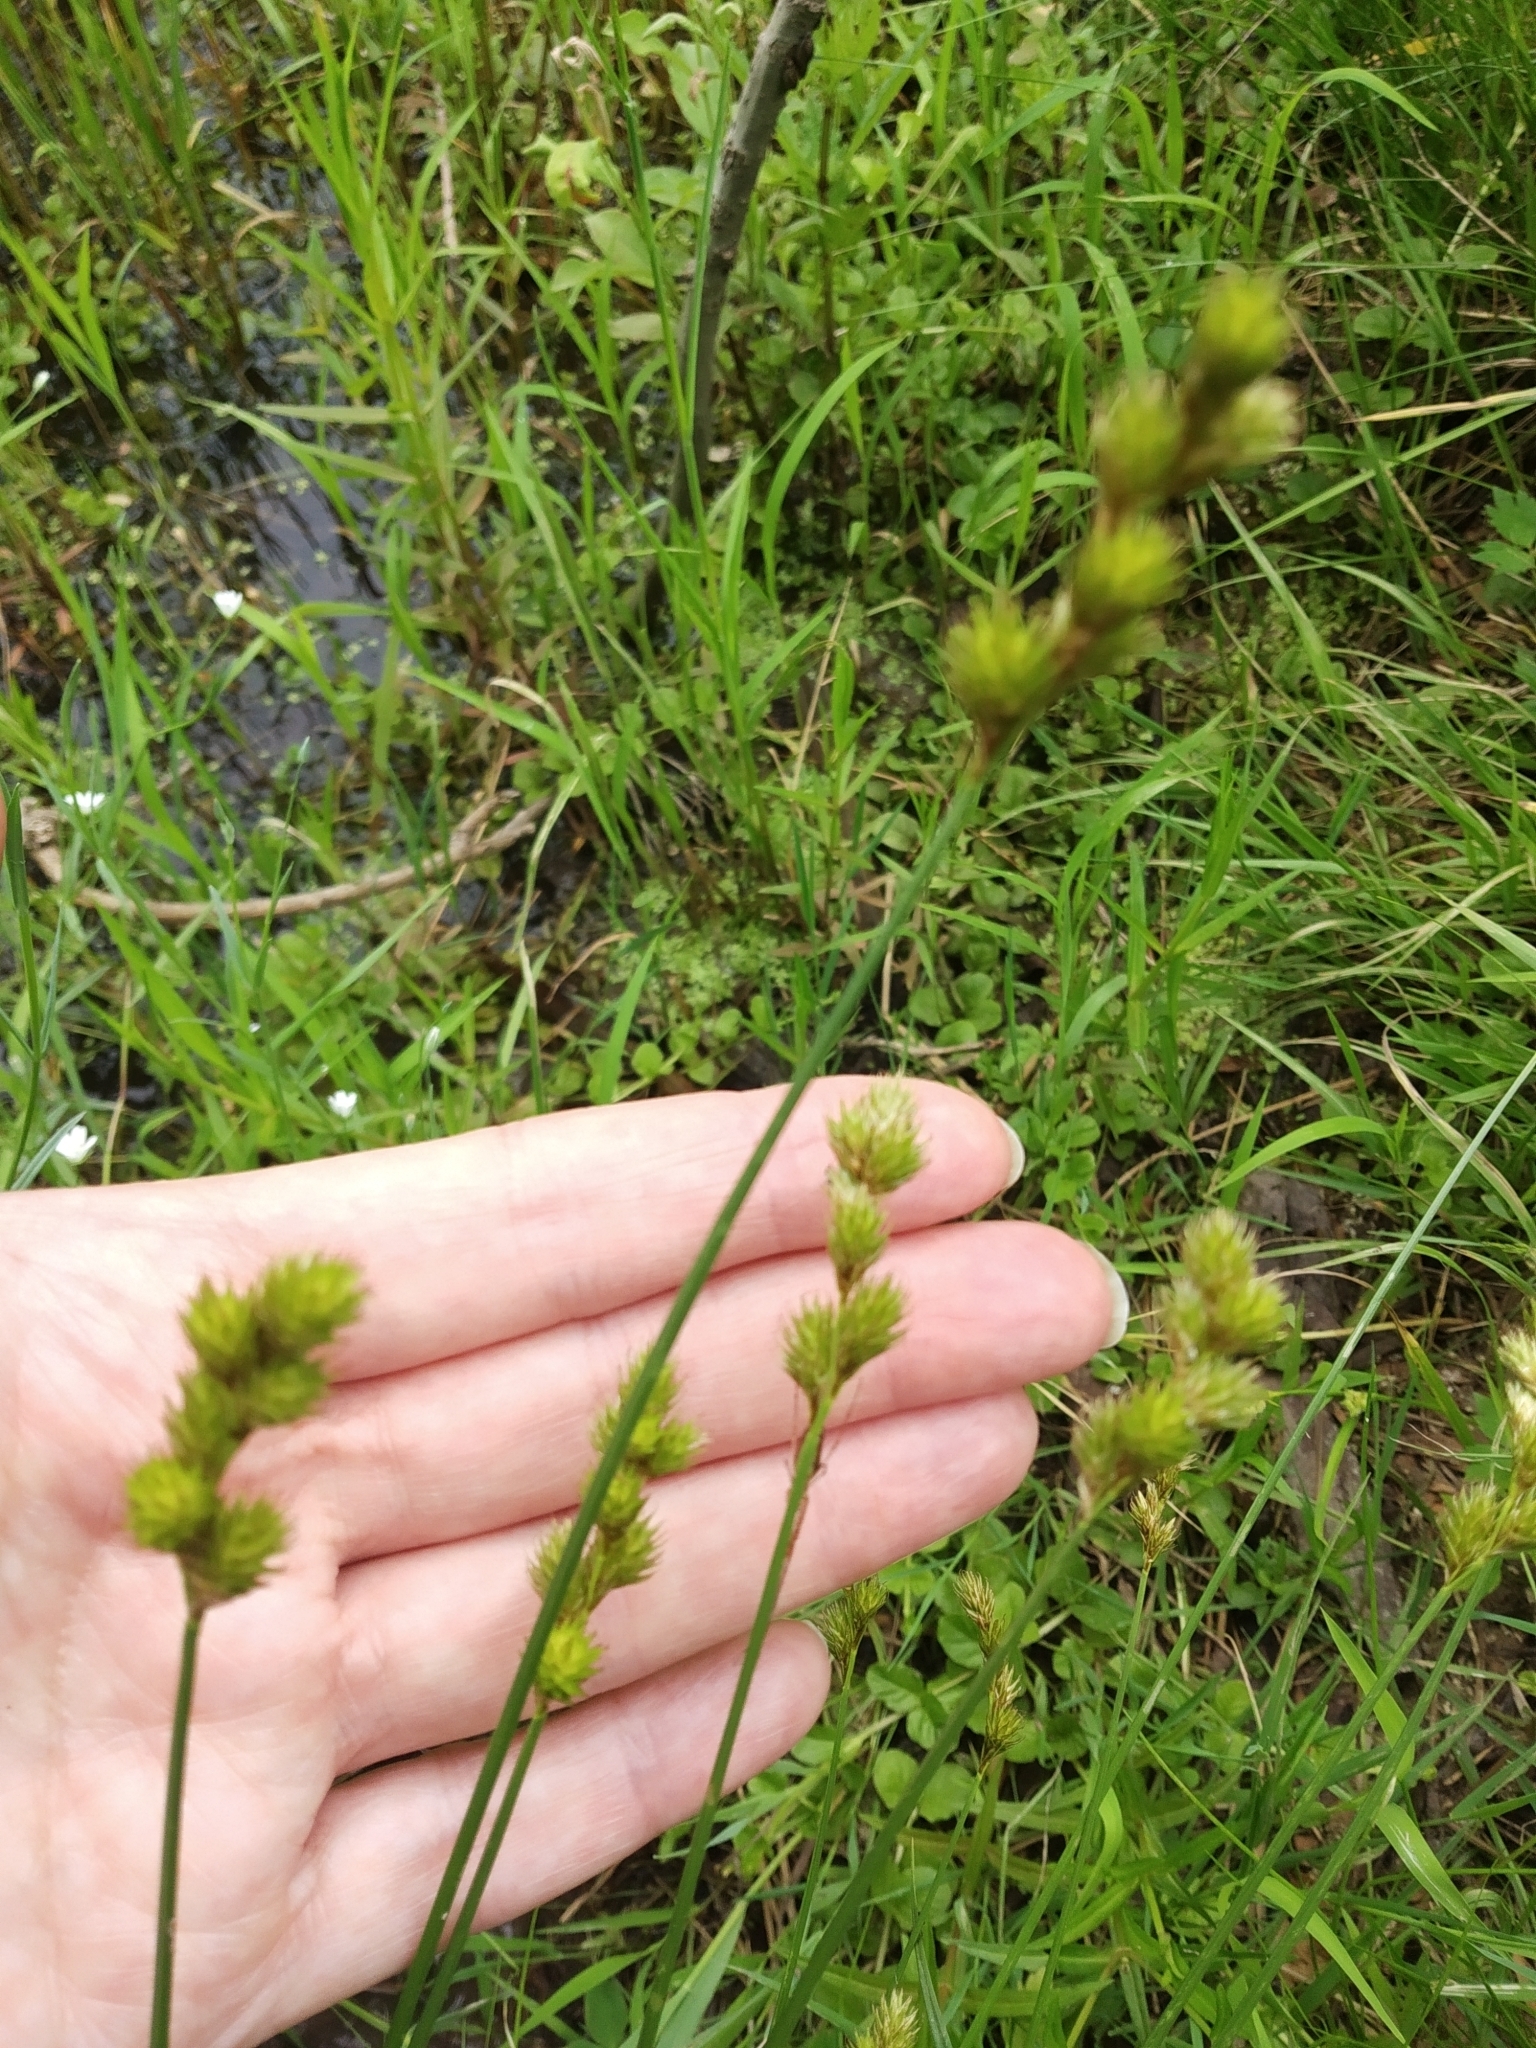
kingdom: Plantae
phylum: Tracheophyta
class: Liliopsida
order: Poales
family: Cyperaceae
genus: Carex
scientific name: Carex leporina
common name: Oval sedge
